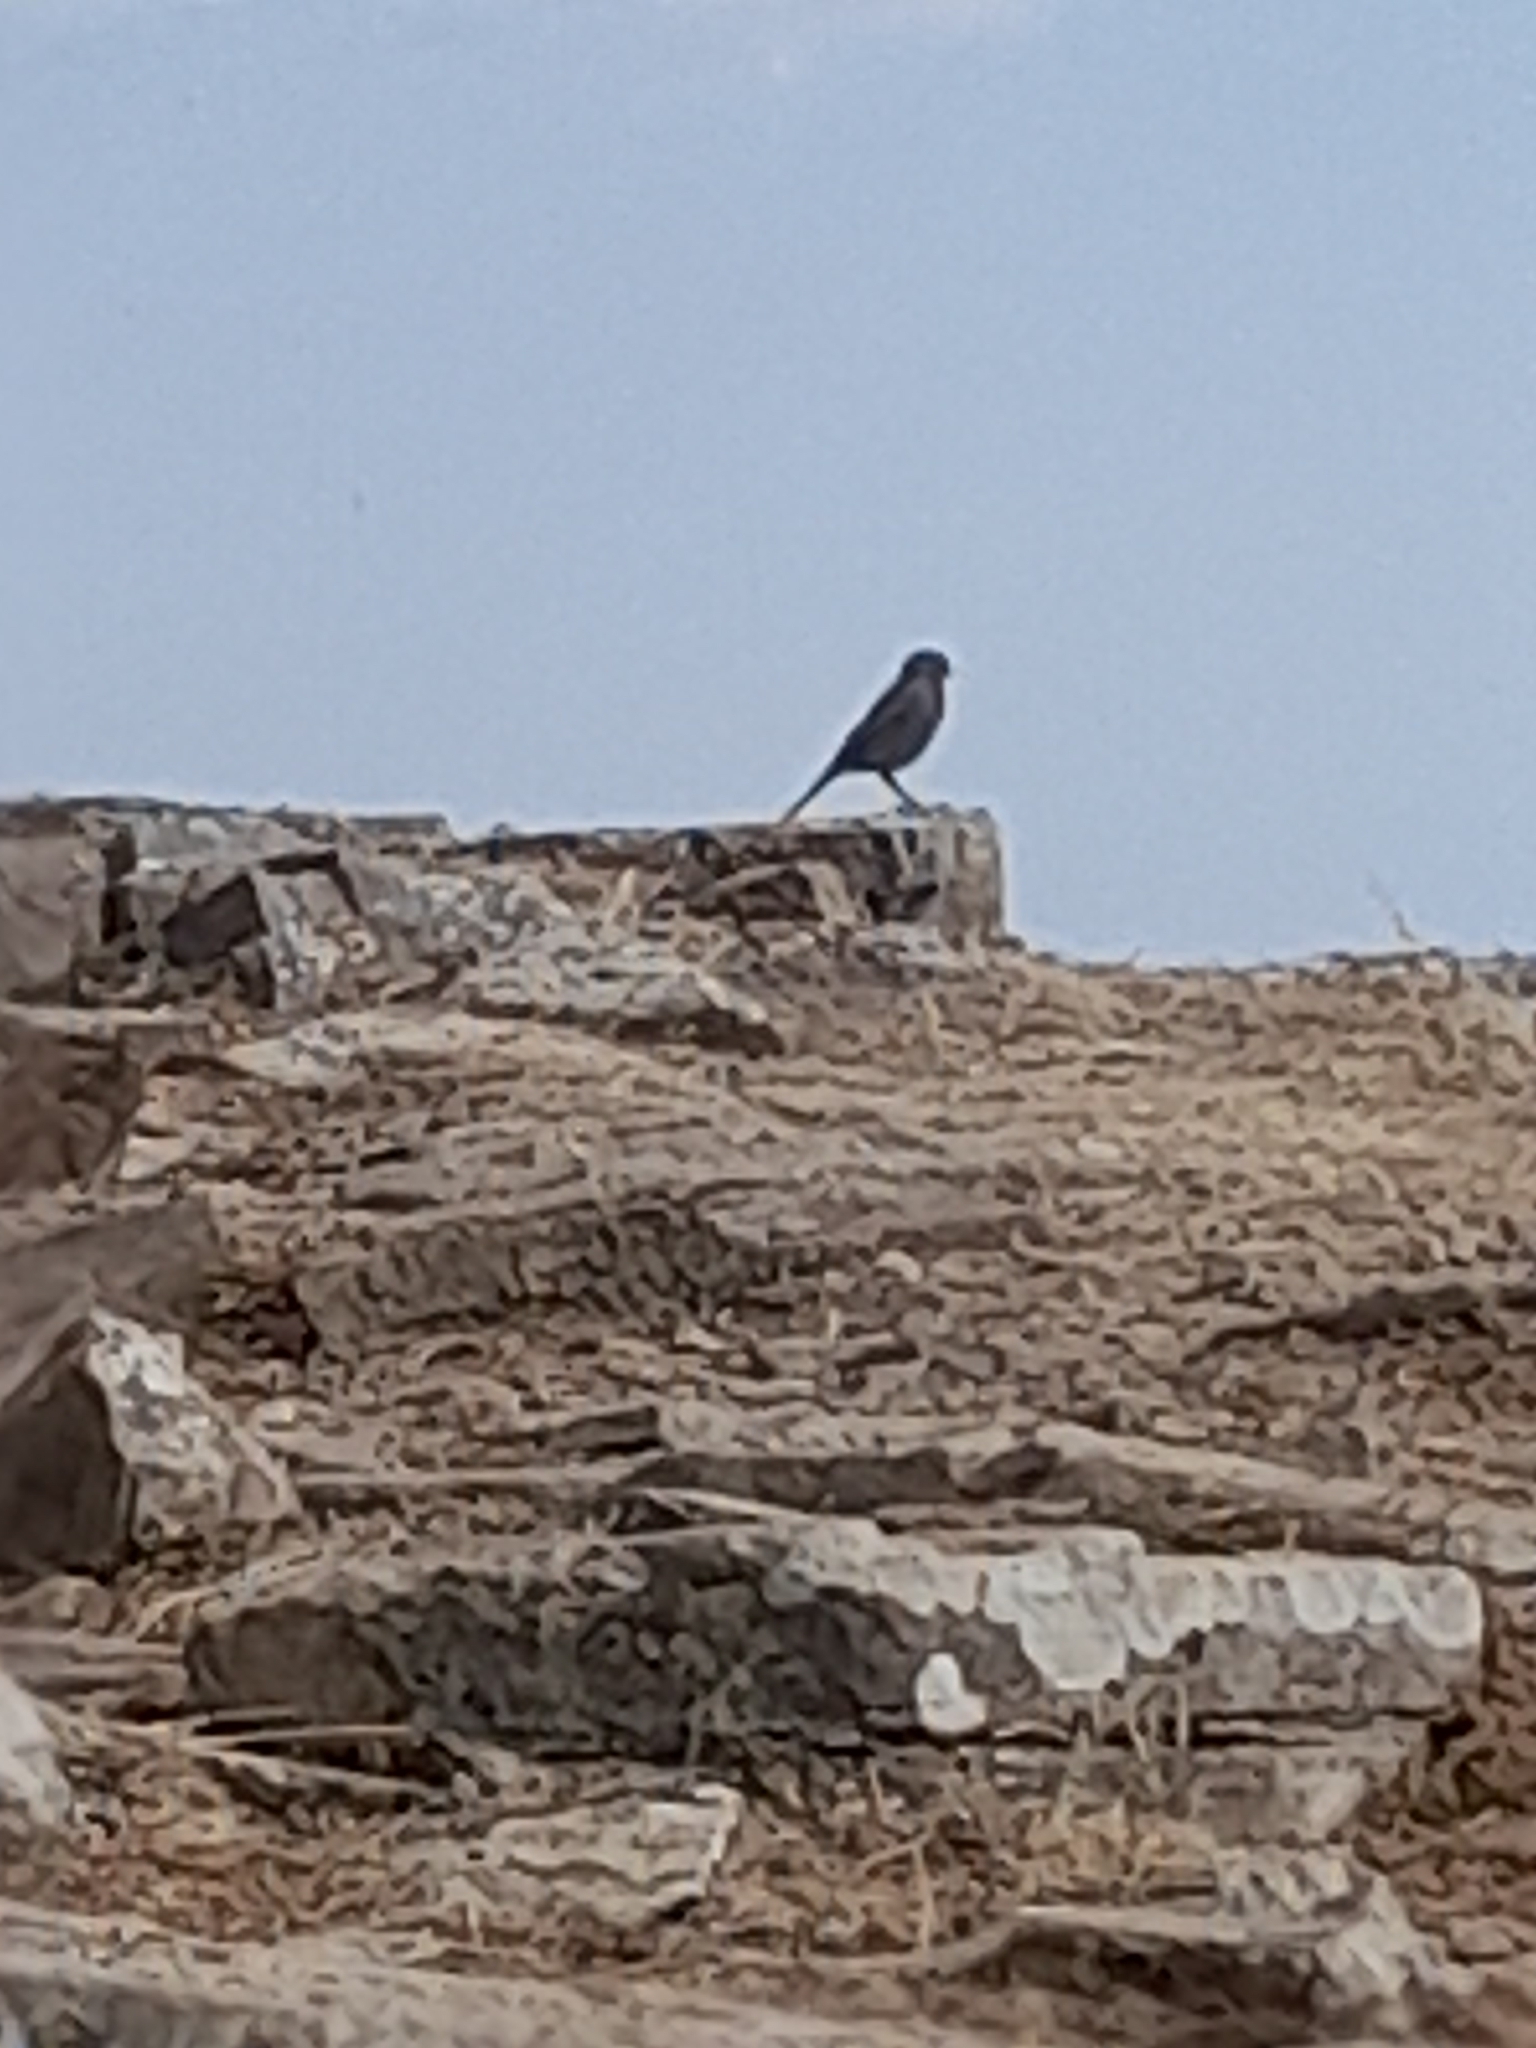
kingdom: Animalia
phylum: Chordata
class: Aves
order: Passeriformes
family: Muscicapidae
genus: Phoenicurus
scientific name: Phoenicurus ochruros
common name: Black redstart
